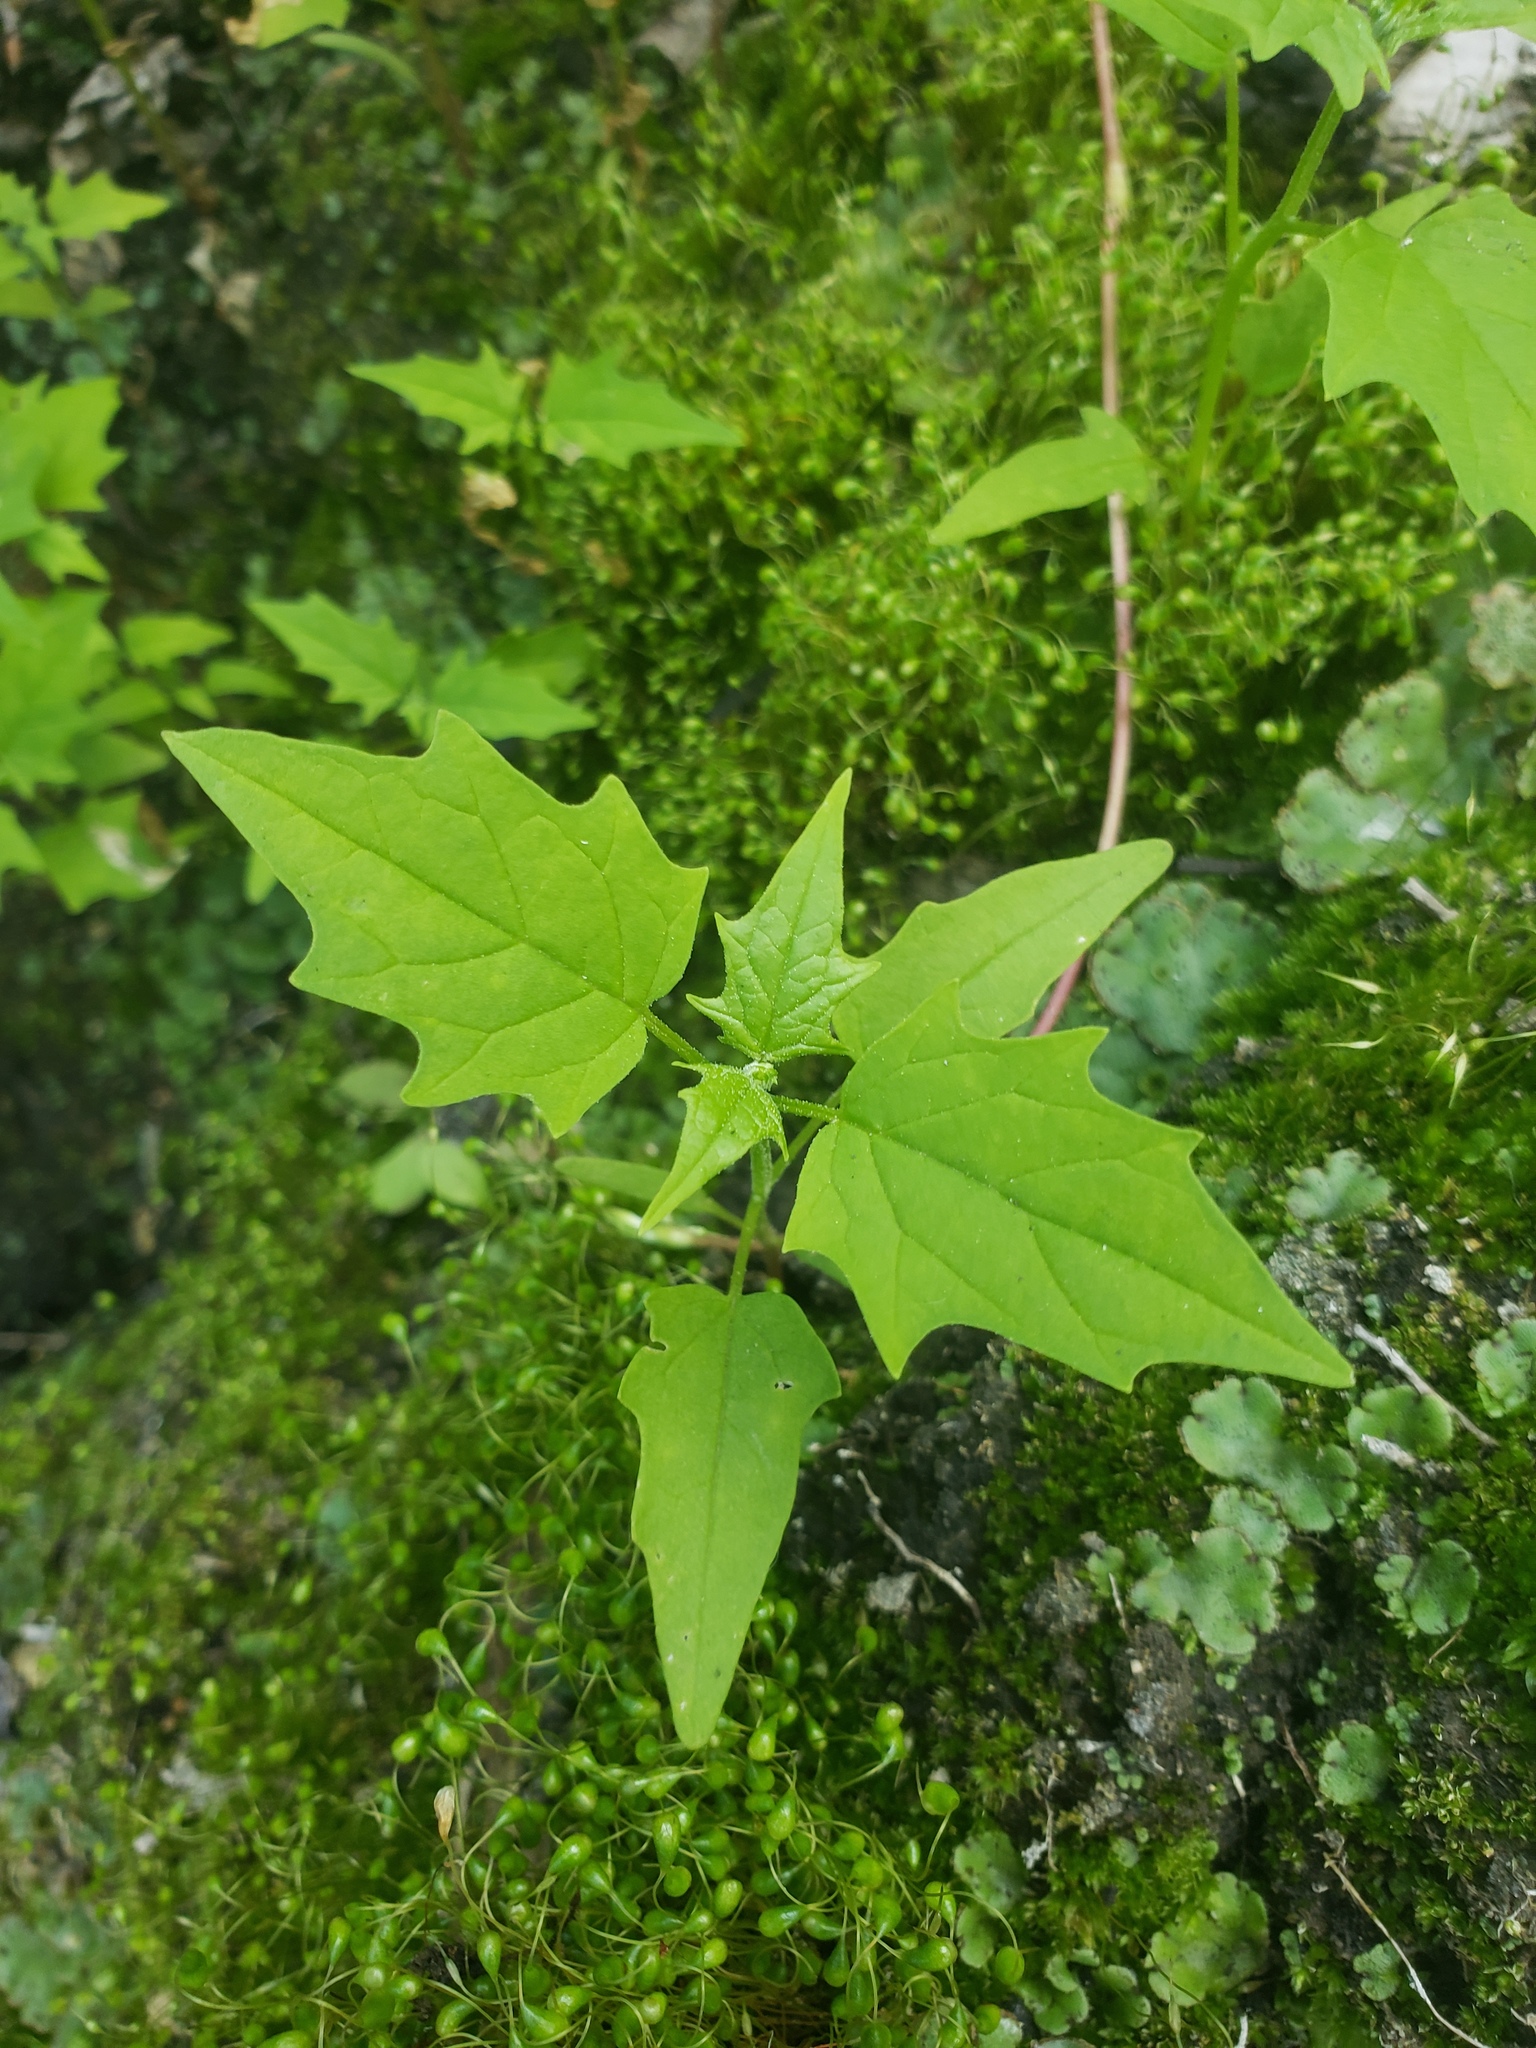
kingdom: Plantae
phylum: Tracheophyta
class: Magnoliopsida
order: Caryophyllales
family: Amaranthaceae
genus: Chenopodiastrum
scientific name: Chenopodiastrum simplex
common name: Large-seed goosefoot
